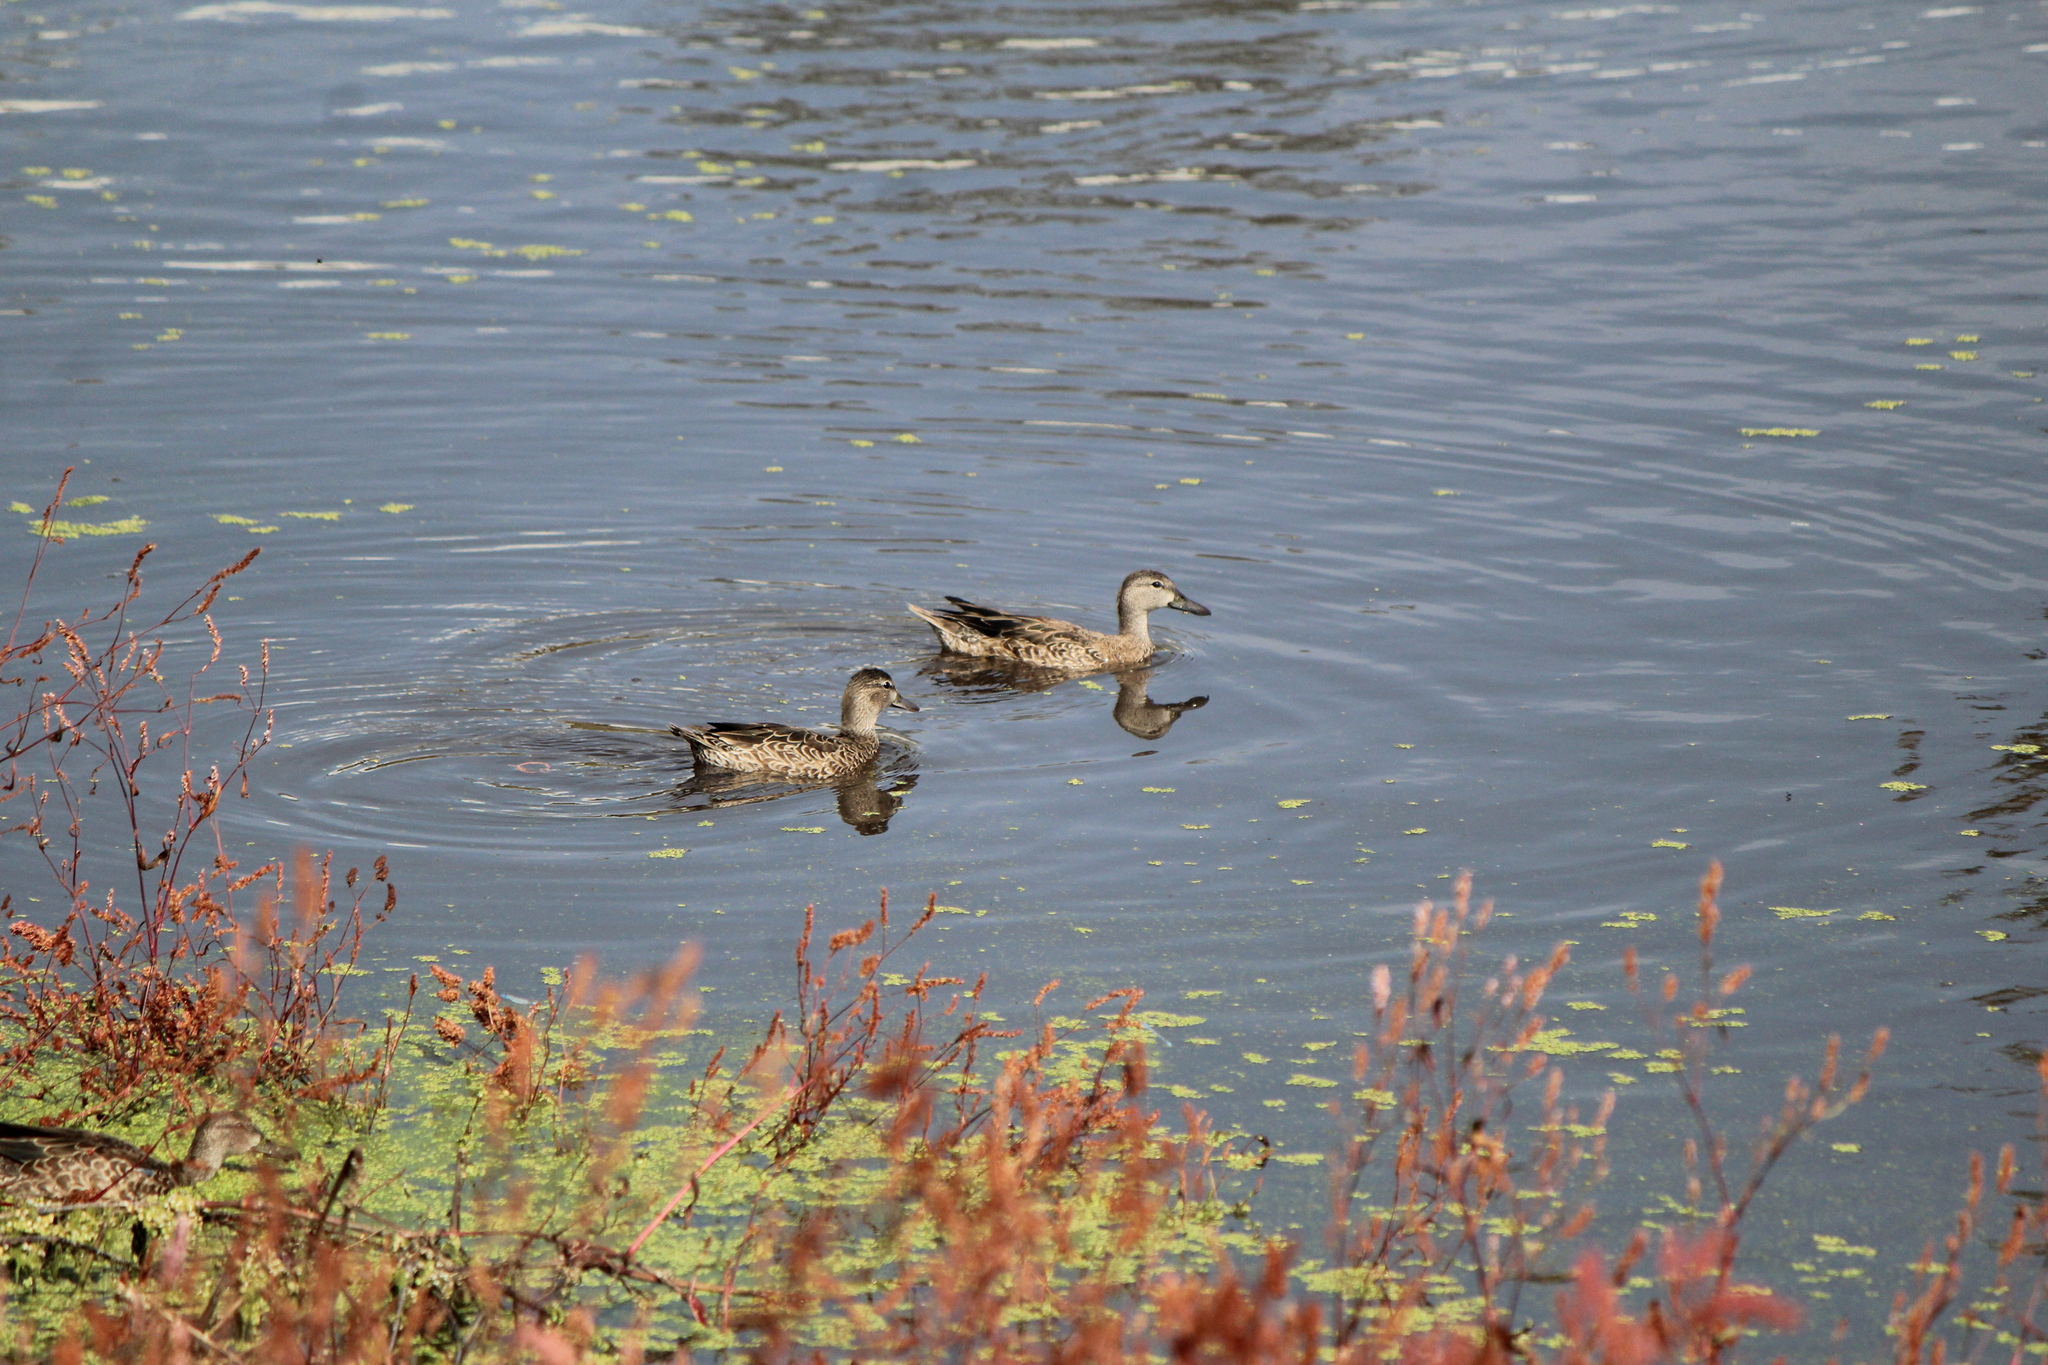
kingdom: Animalia
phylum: Chordata
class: Aves
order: Anseriformes
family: Anatidae
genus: Spatula
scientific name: Spatula discors
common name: Blue-winged teal
